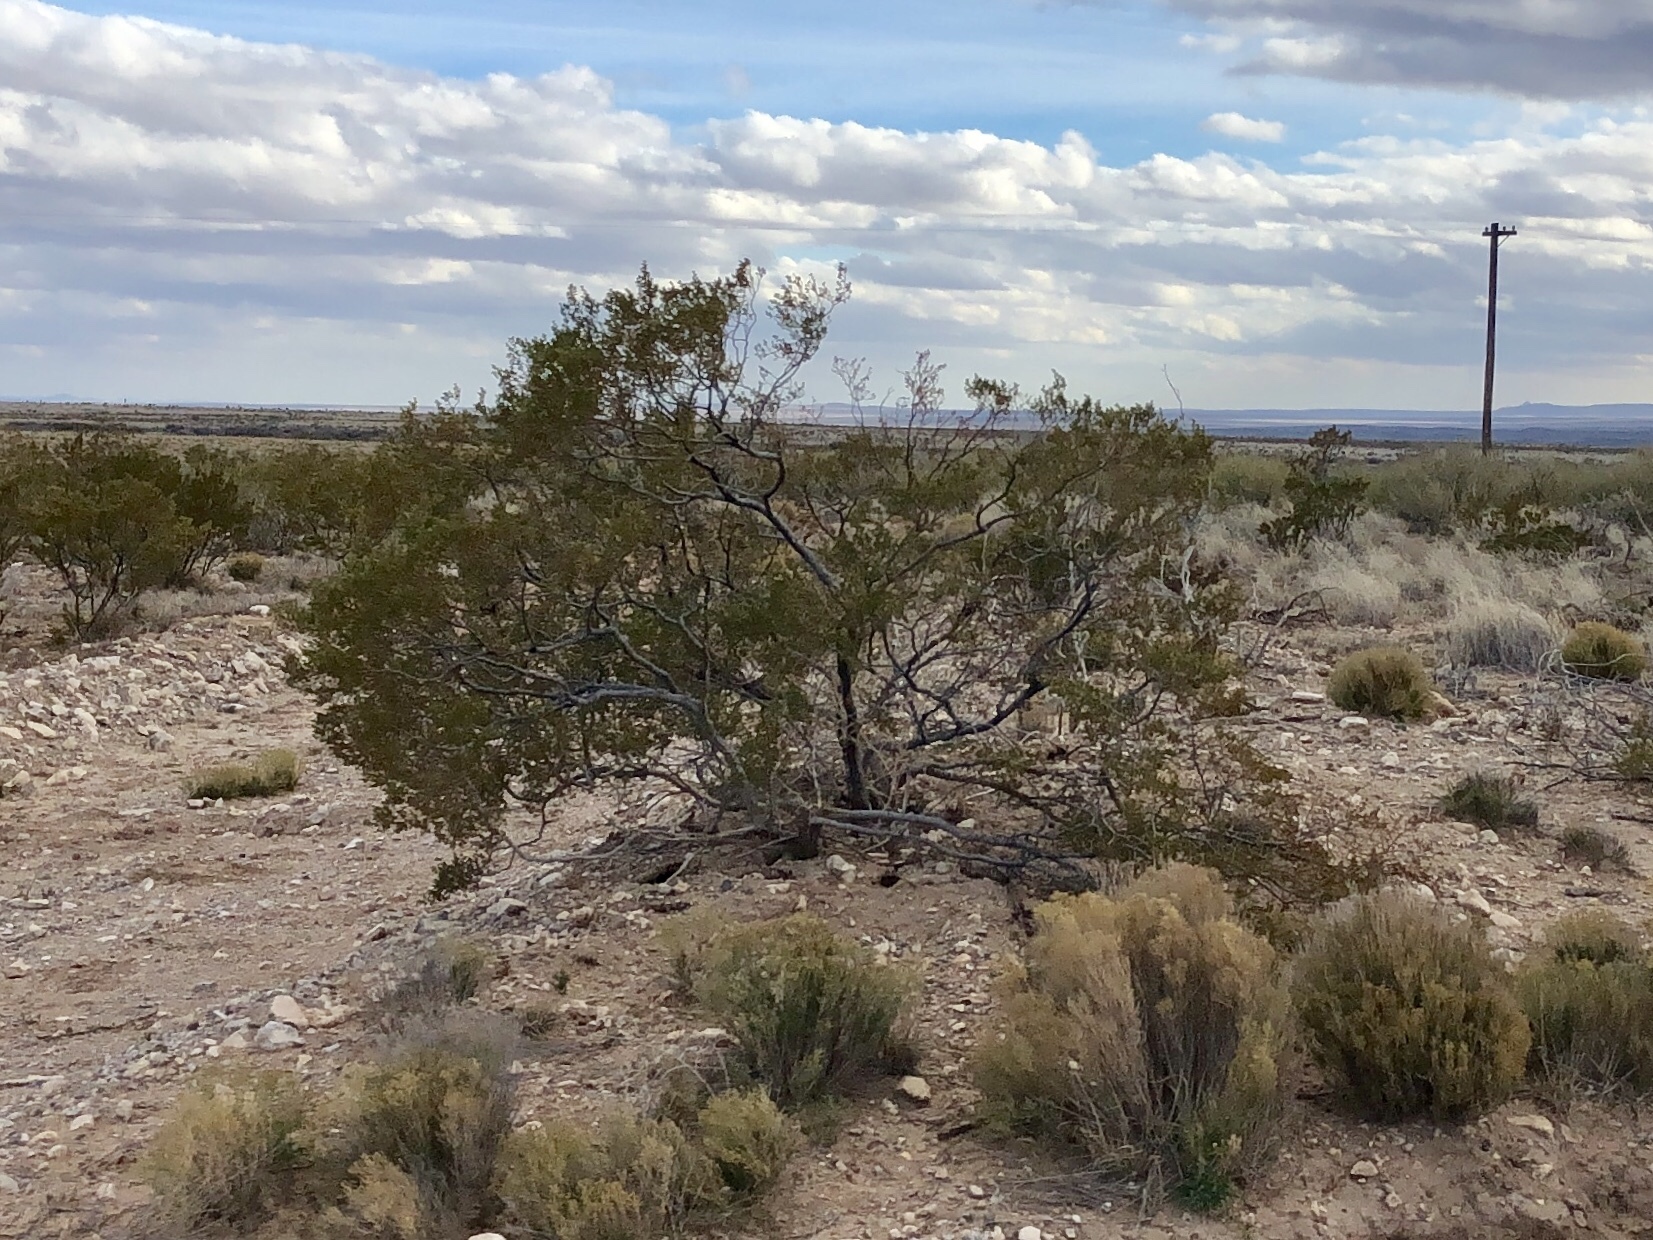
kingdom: Plantae
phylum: Tracheophyta
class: Magnoliopsida
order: Zygophyllales
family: Zygophyllaceae
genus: Larrea
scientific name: Larrea tridentata
